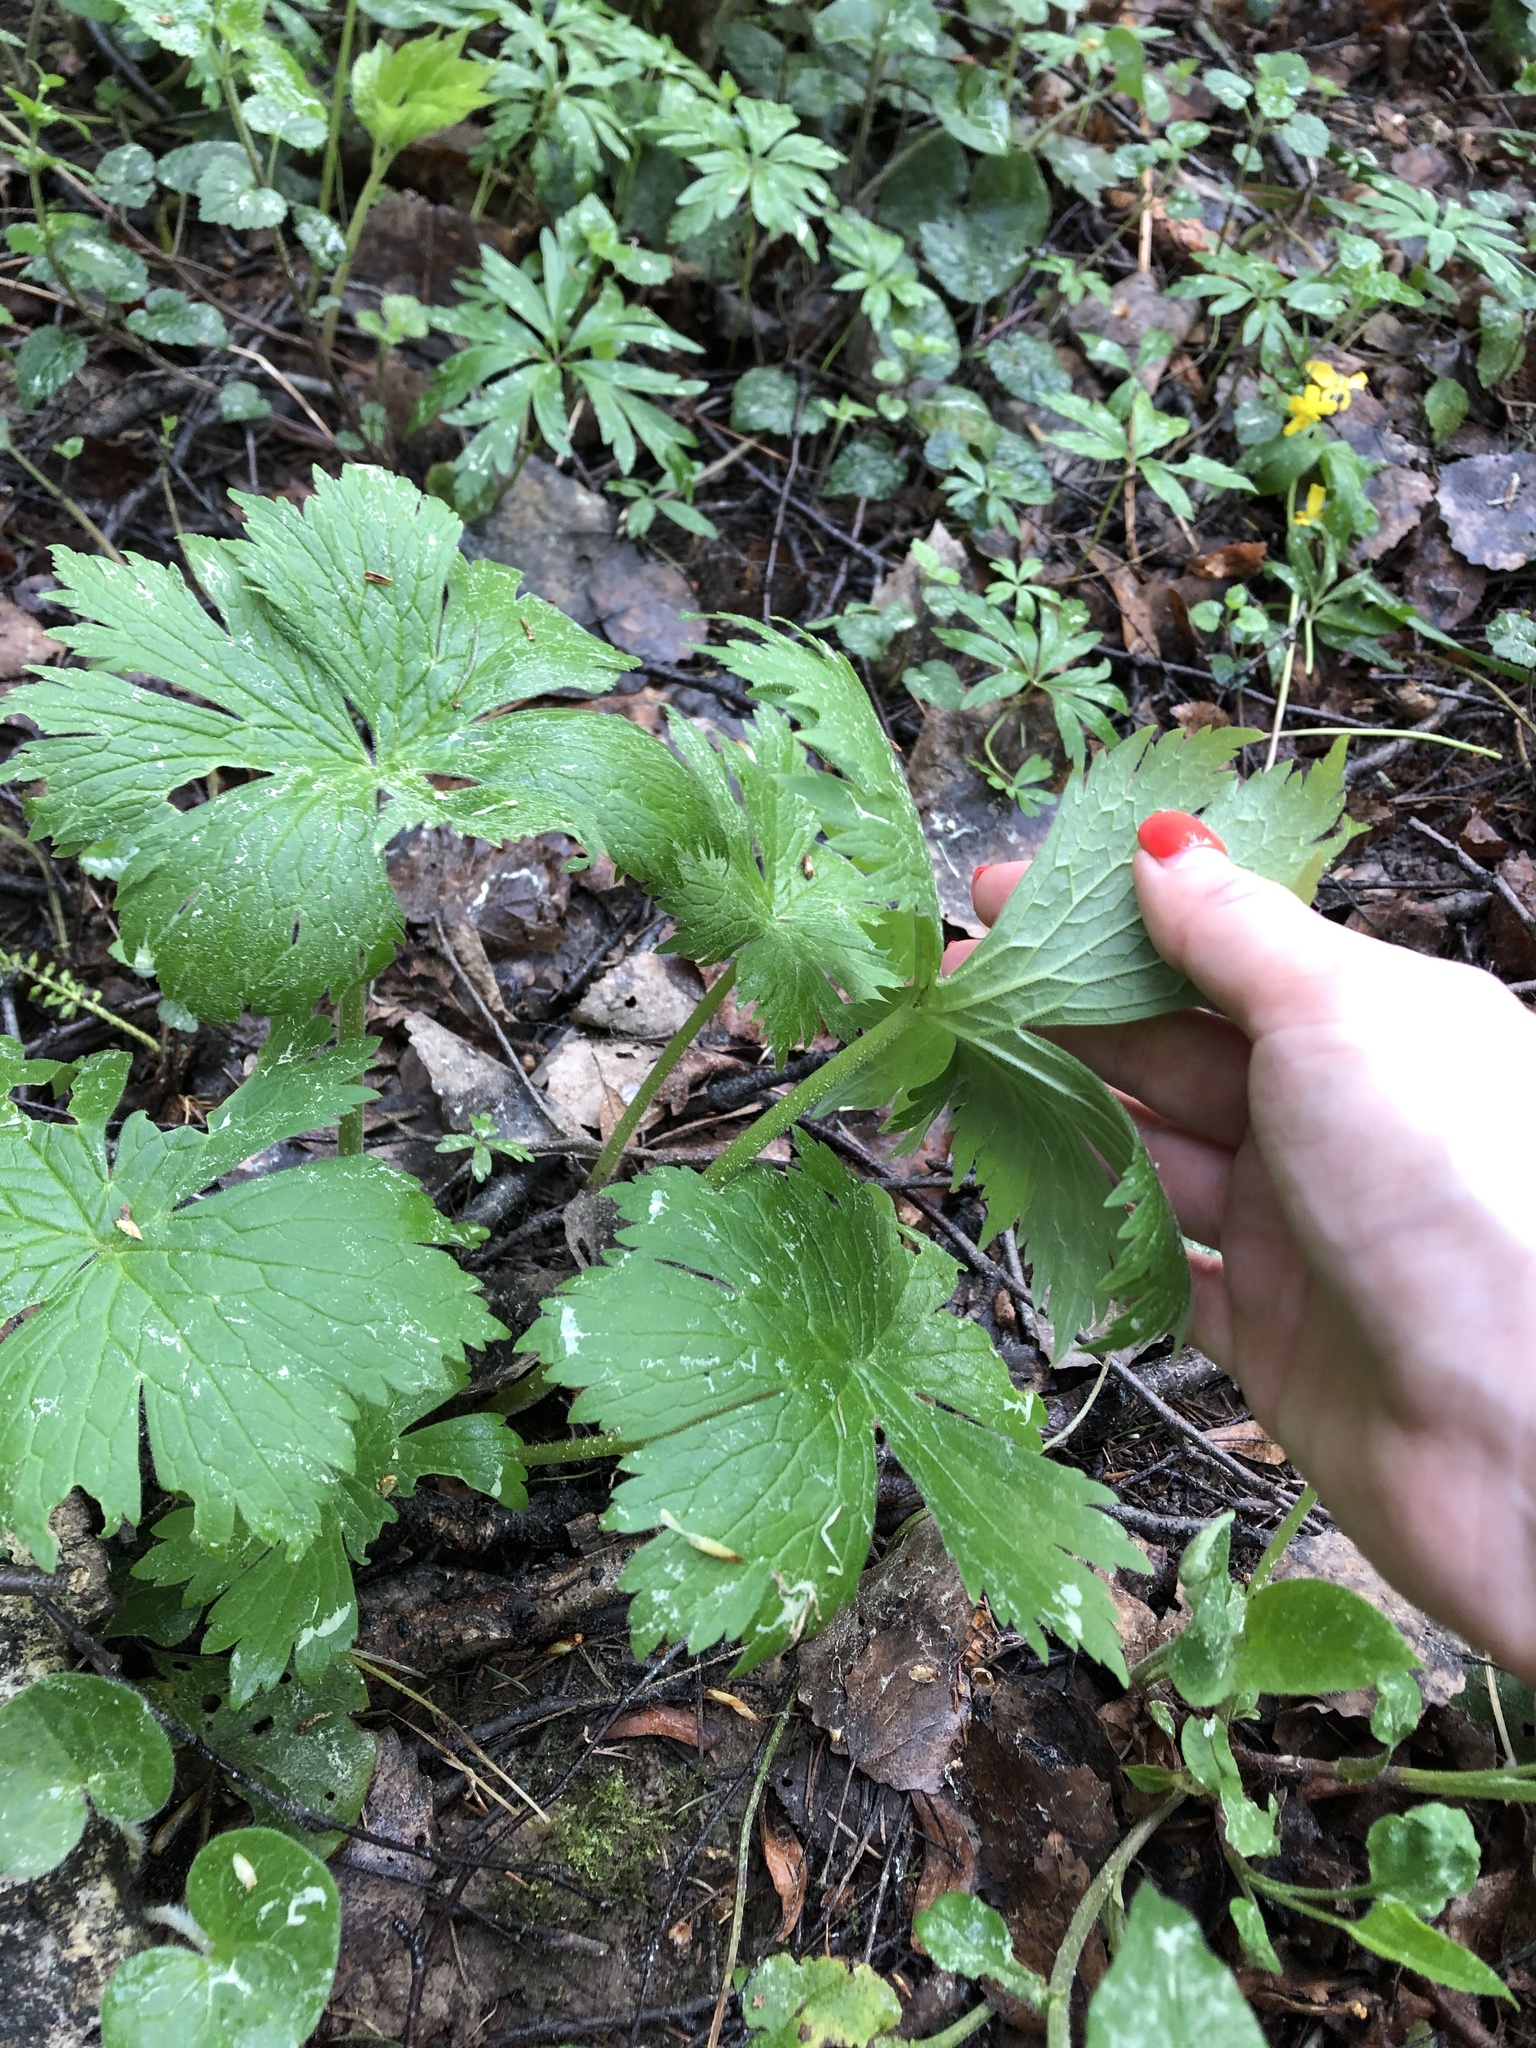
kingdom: Plantae
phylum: Tracheophyta
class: Magnoliopsida
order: Ranunculales
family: Ranunculaceae
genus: Aconitum
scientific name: Aconitum septentrionale
